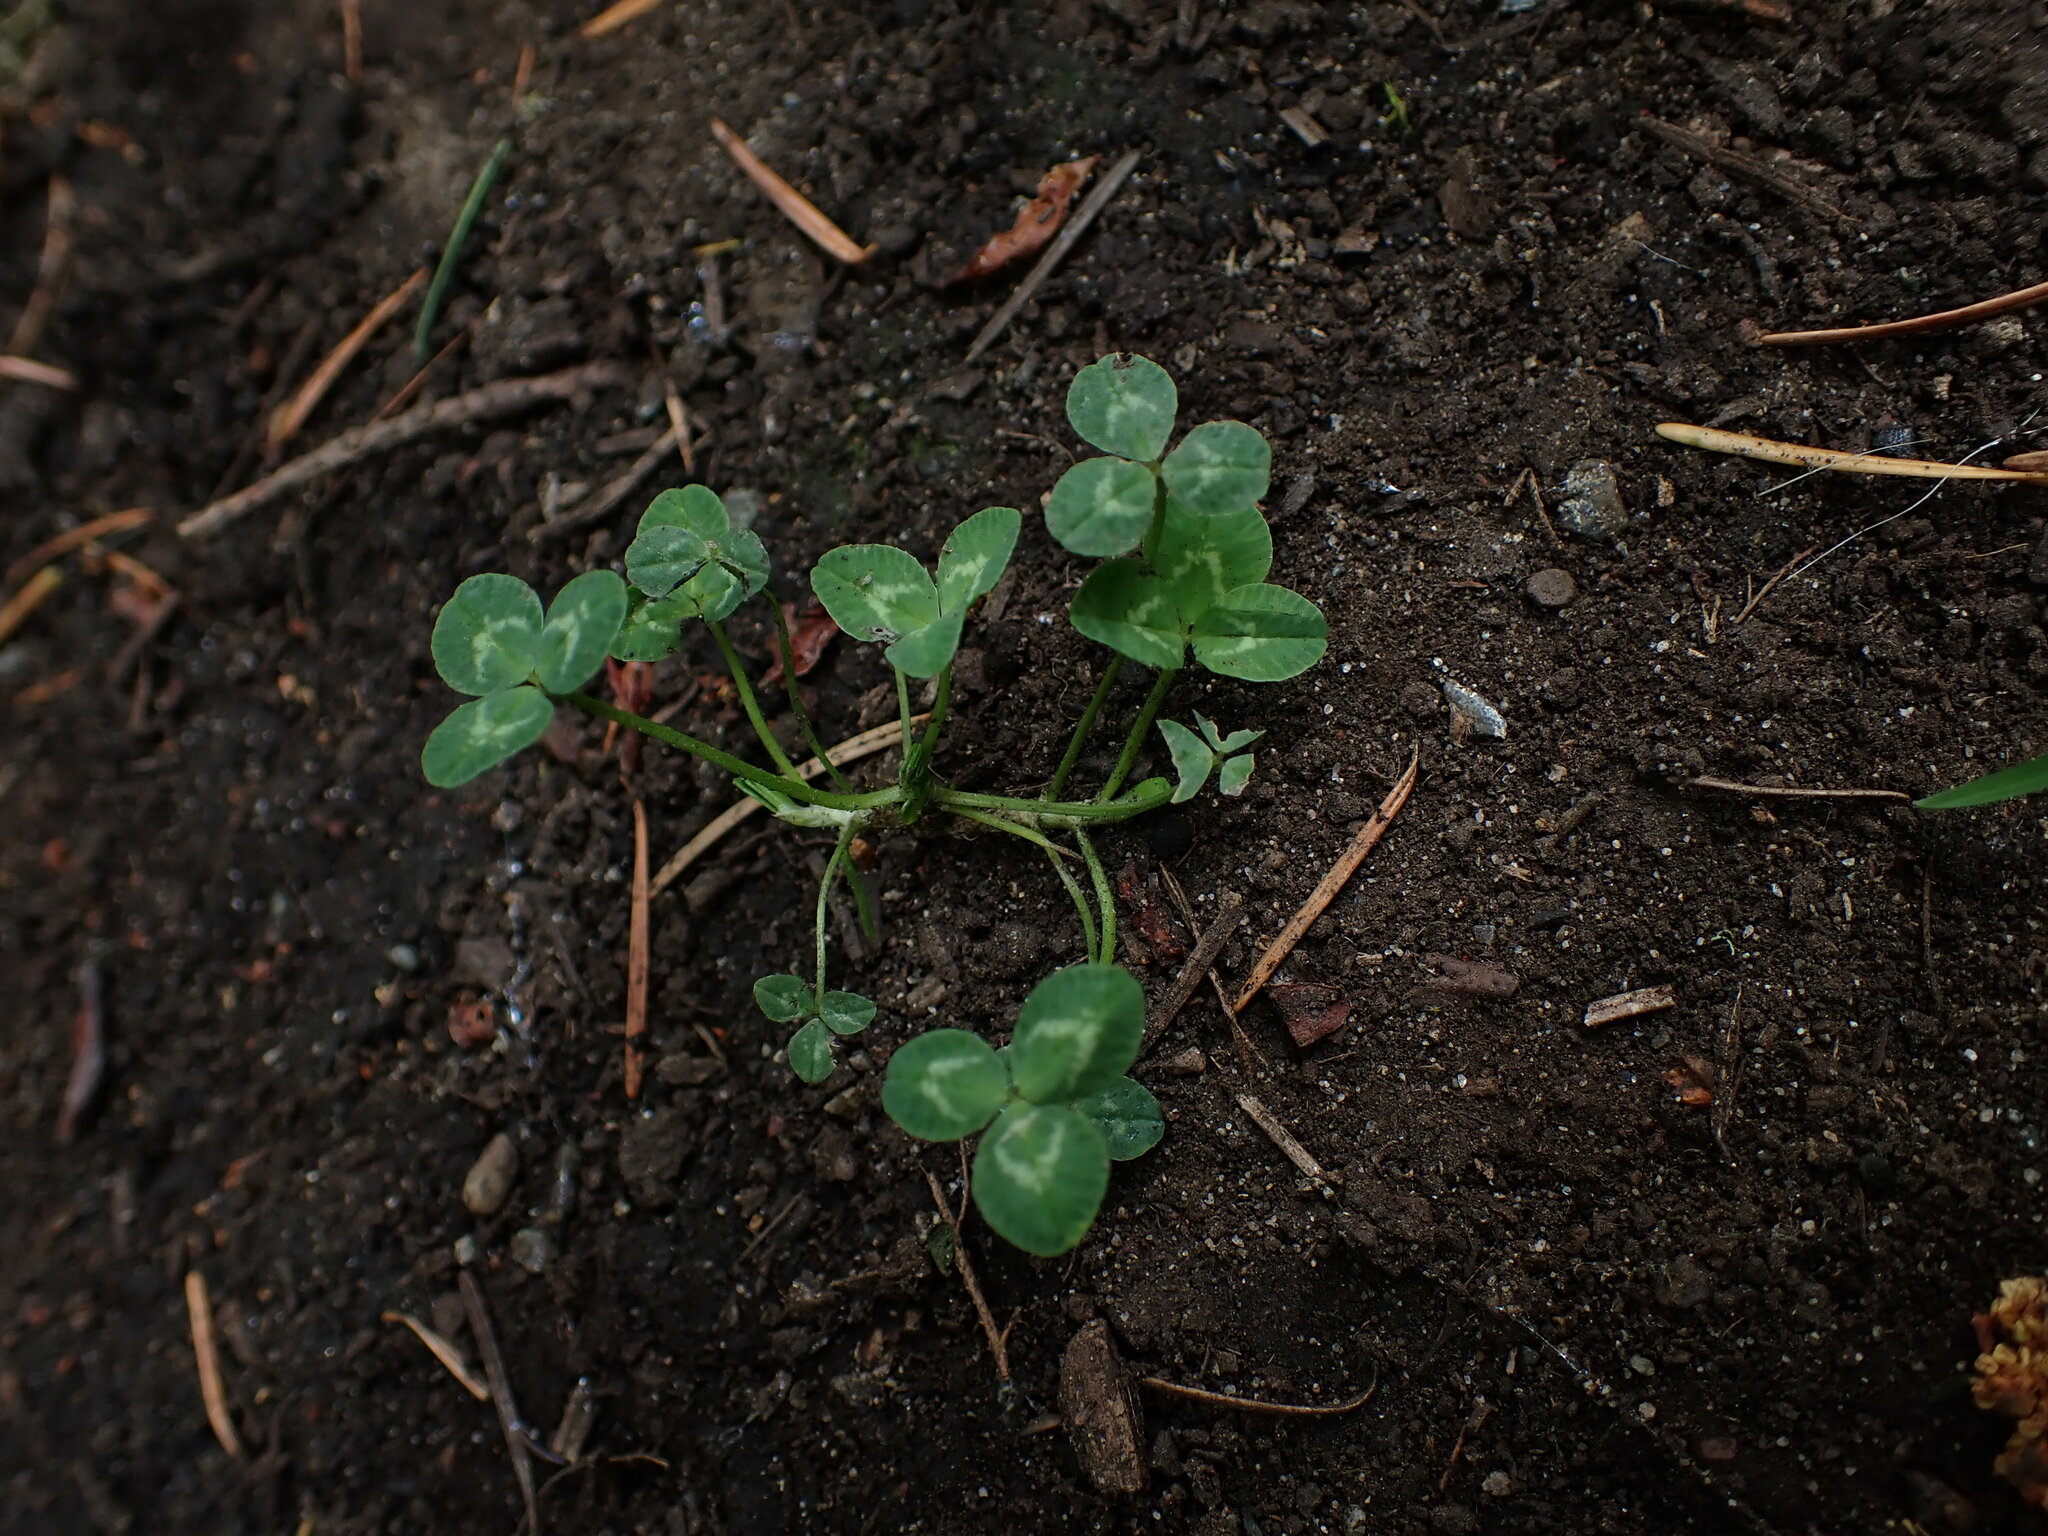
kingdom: Plantae
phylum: Tracheophyta
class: Magnoliopsida
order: Fabales
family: Fabaceae
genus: Trifolium
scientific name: Trifolium repens
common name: White clover
